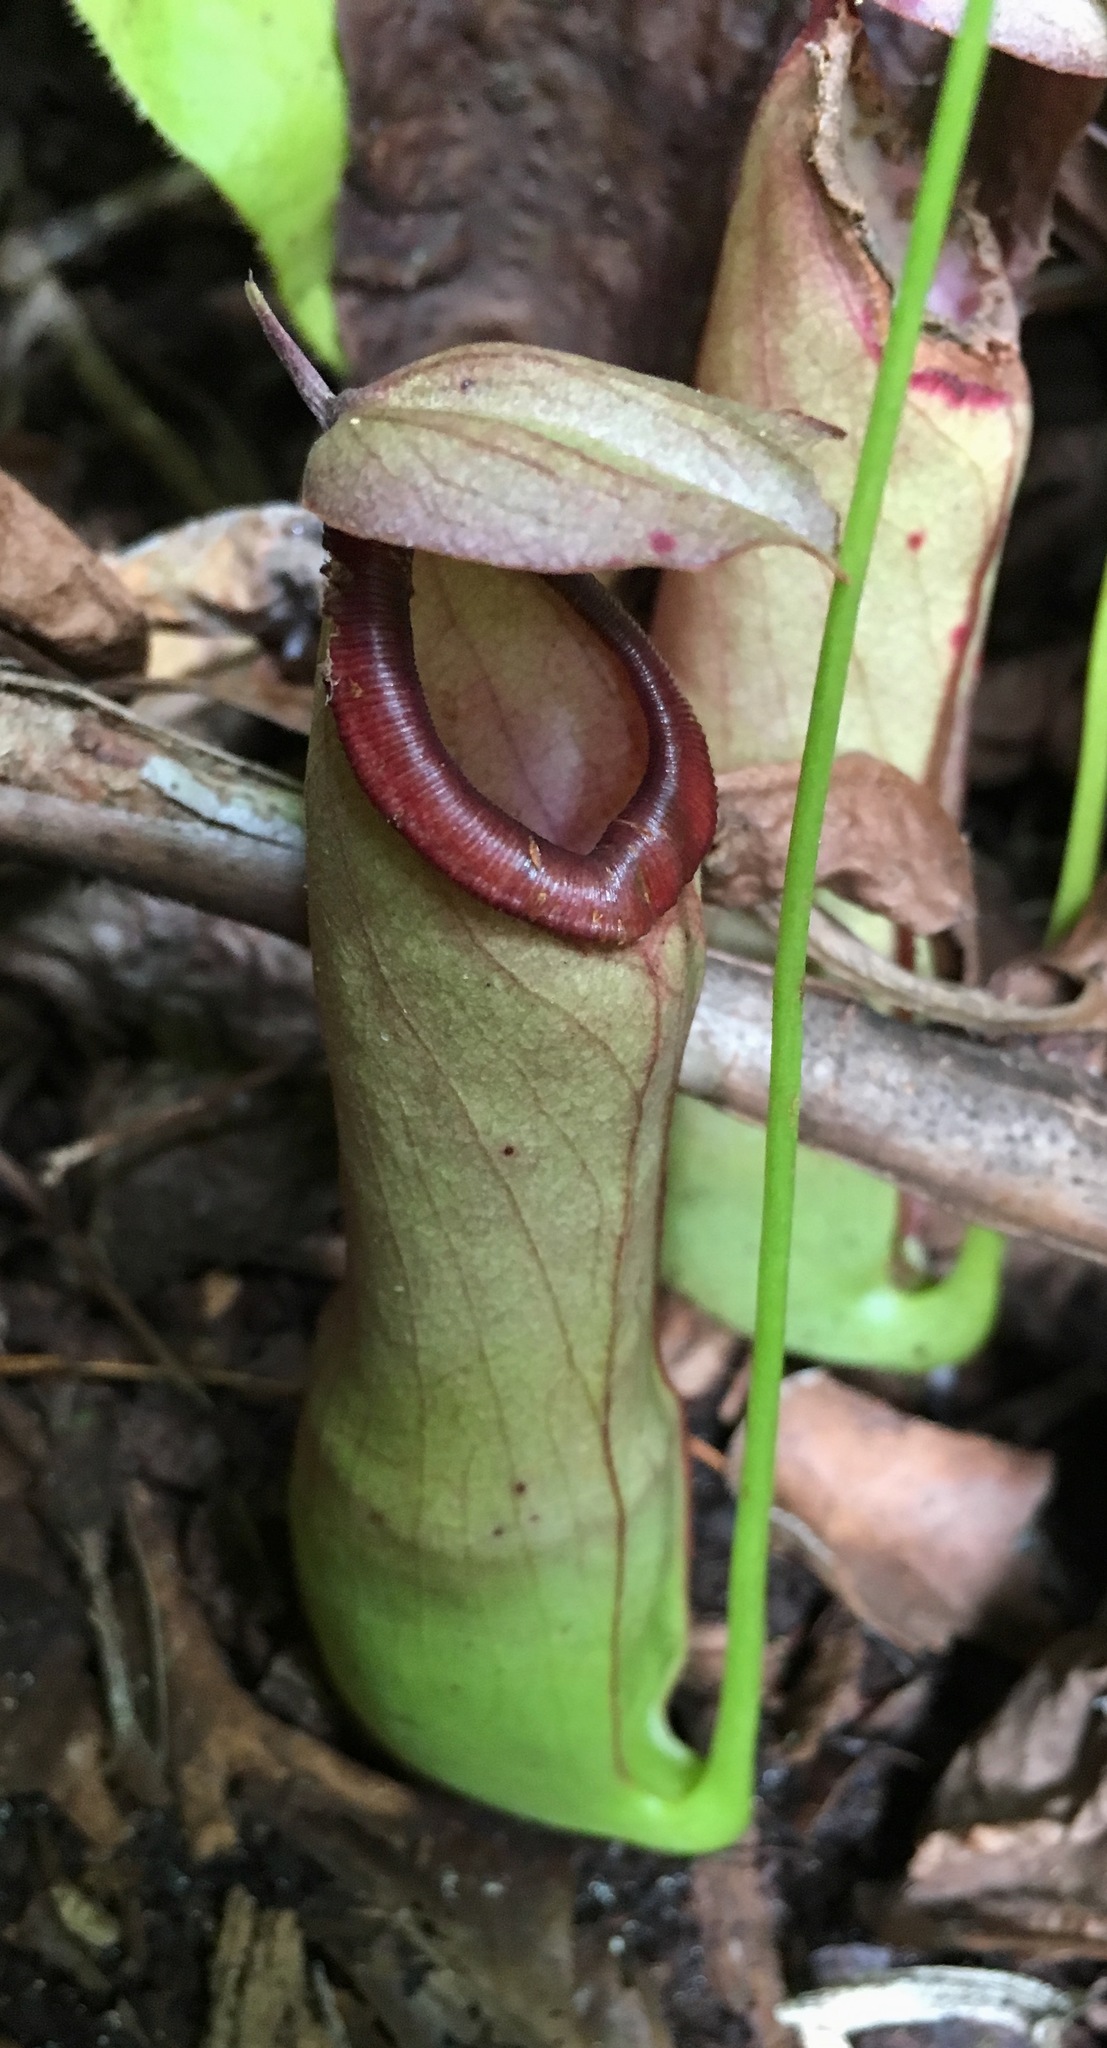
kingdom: Plantae
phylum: Tracheophyta
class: Magnoliopsida
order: Caryophyllales
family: Nepenthaceae
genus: Nepenthes
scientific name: Nepenthes mirabilis
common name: Tropical pitcherplant
